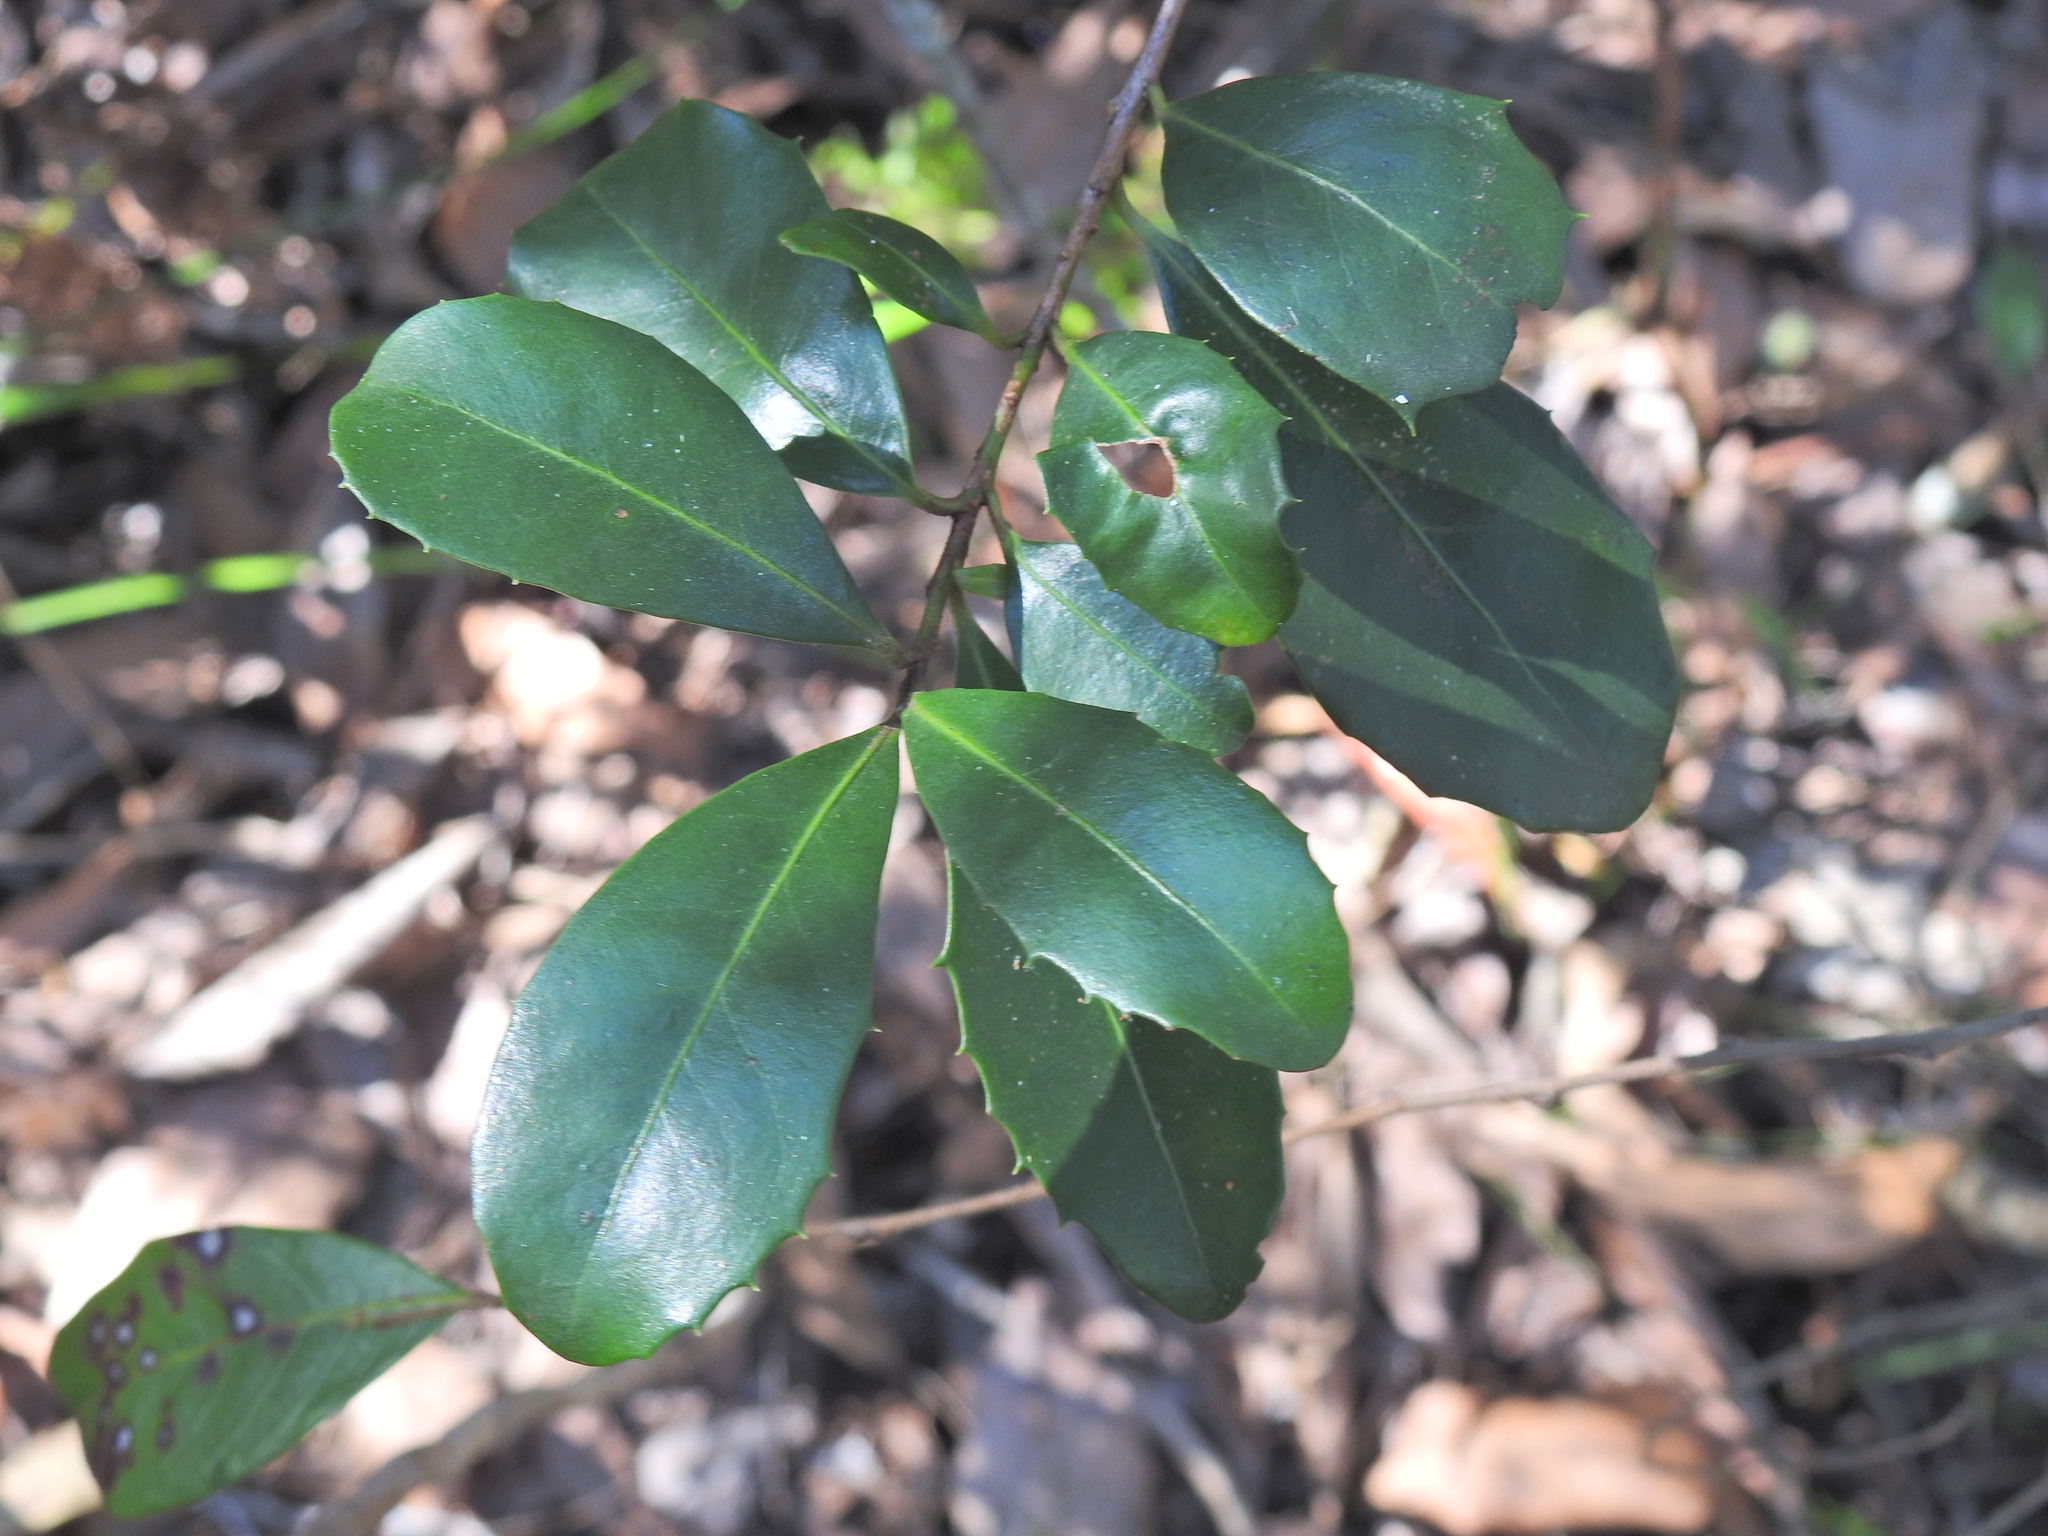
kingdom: Plantae
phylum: Tracheophyta
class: Magnoliopsida
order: Ericales
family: Primulaceae
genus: Myrsine
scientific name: Myrsine variabilis
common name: Brush muttonwood
